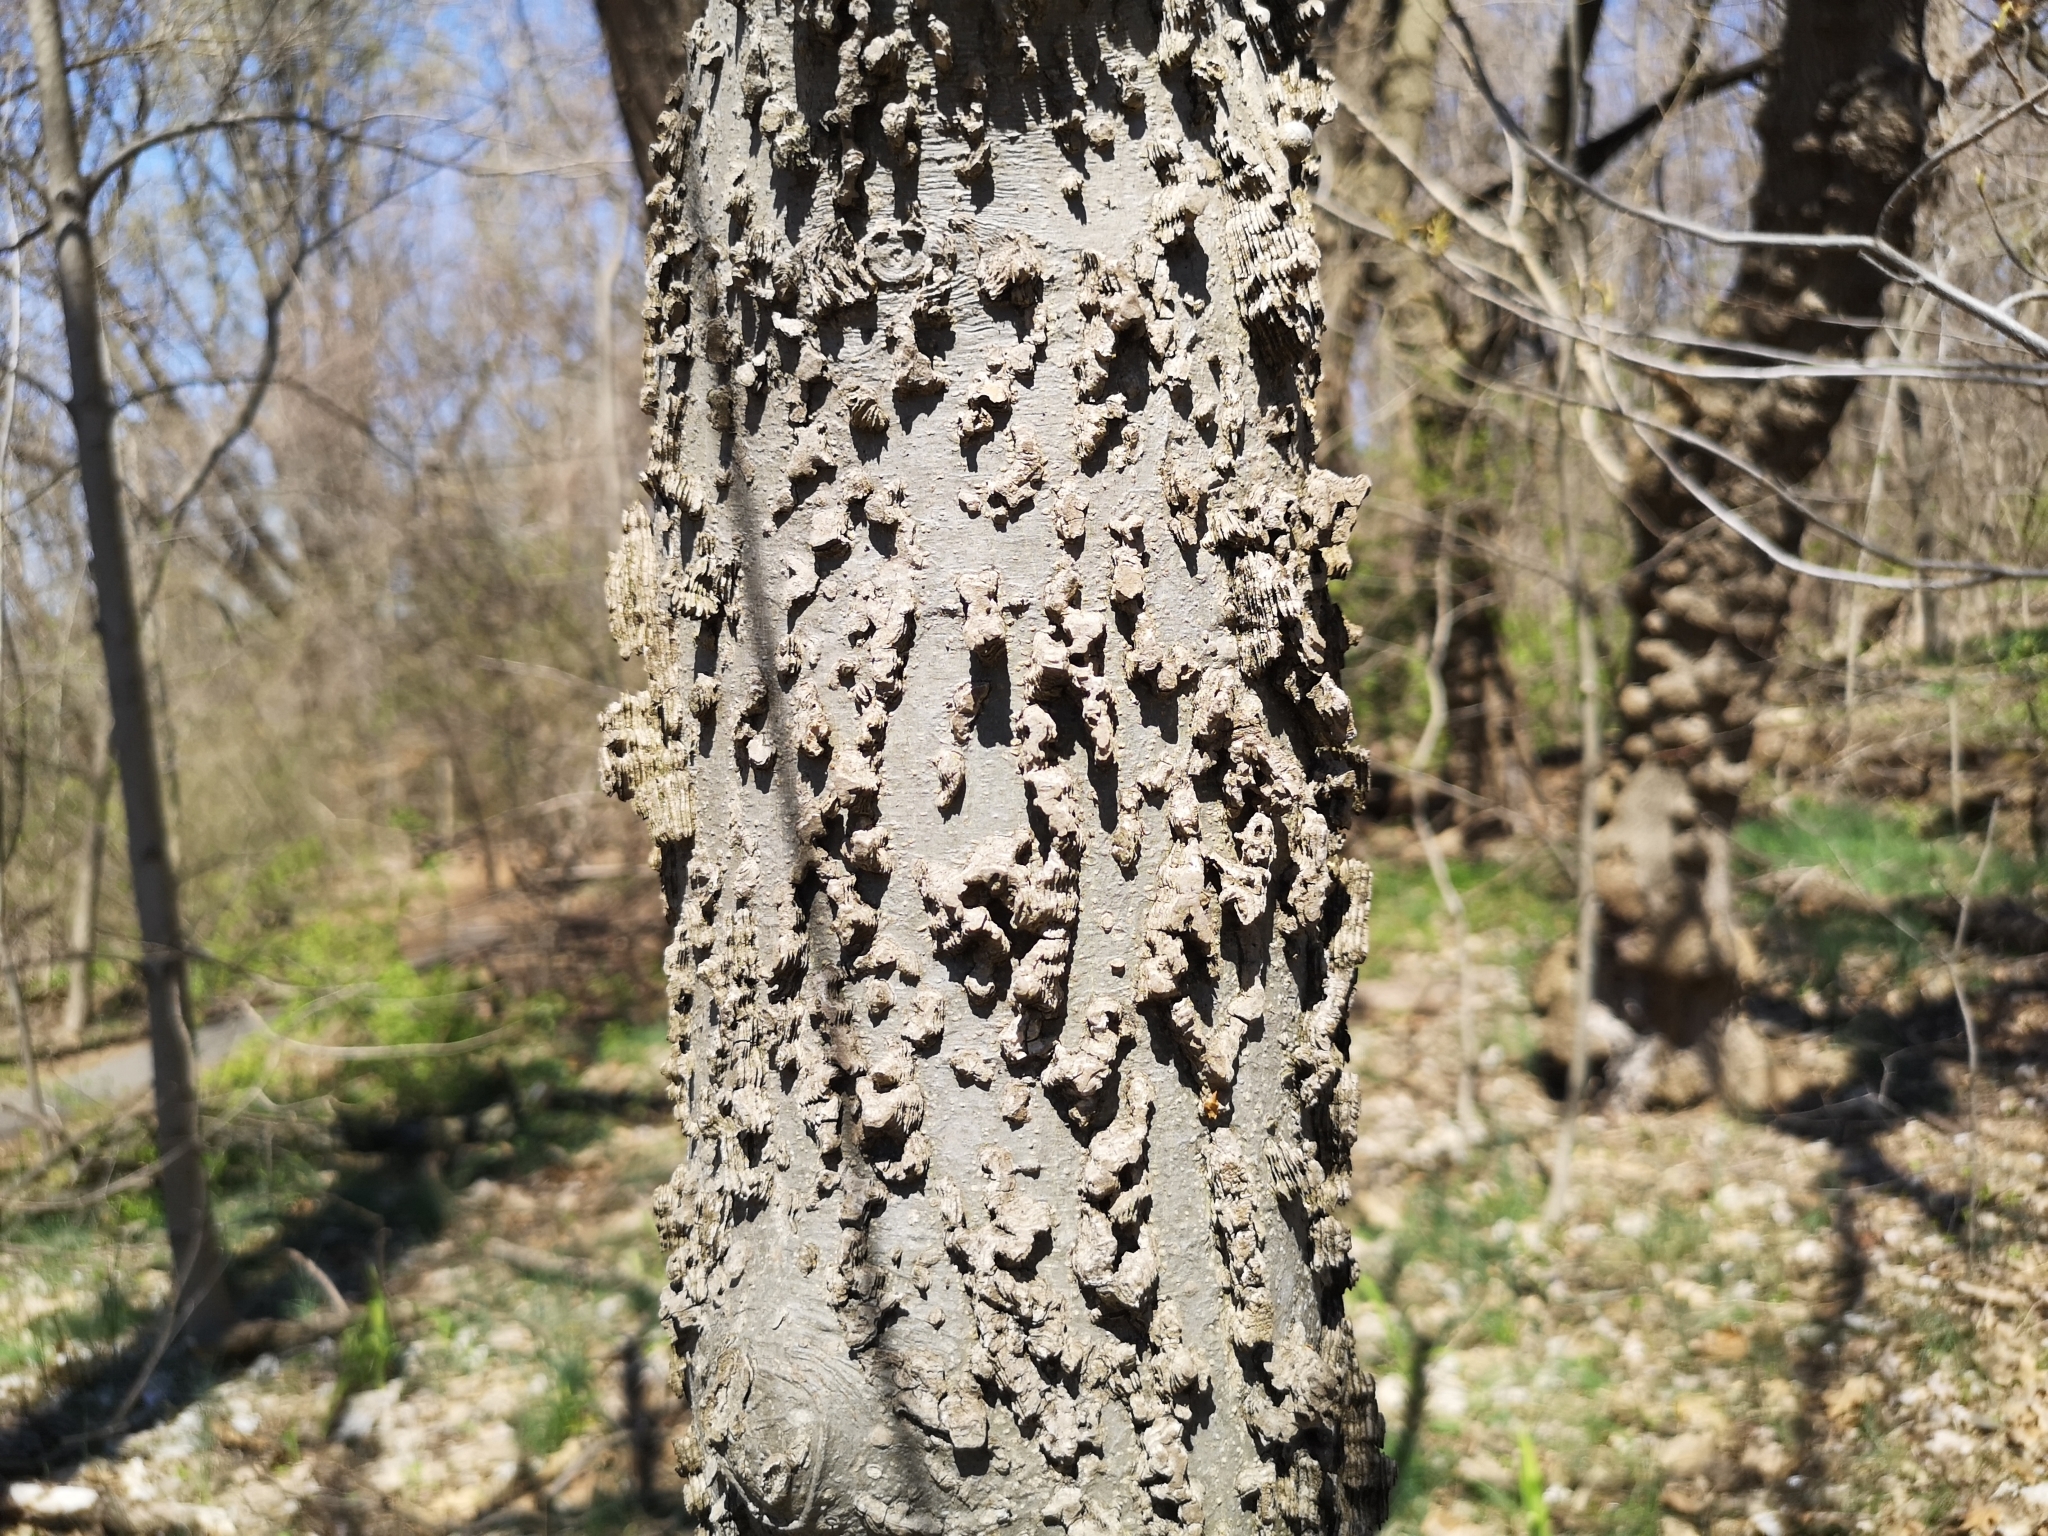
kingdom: Plantae
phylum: Tracheophyta
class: Magnoliopsida
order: Rosales
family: Cannabaceae
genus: Celtis
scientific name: Celtis occidentalis
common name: Common hackberry
